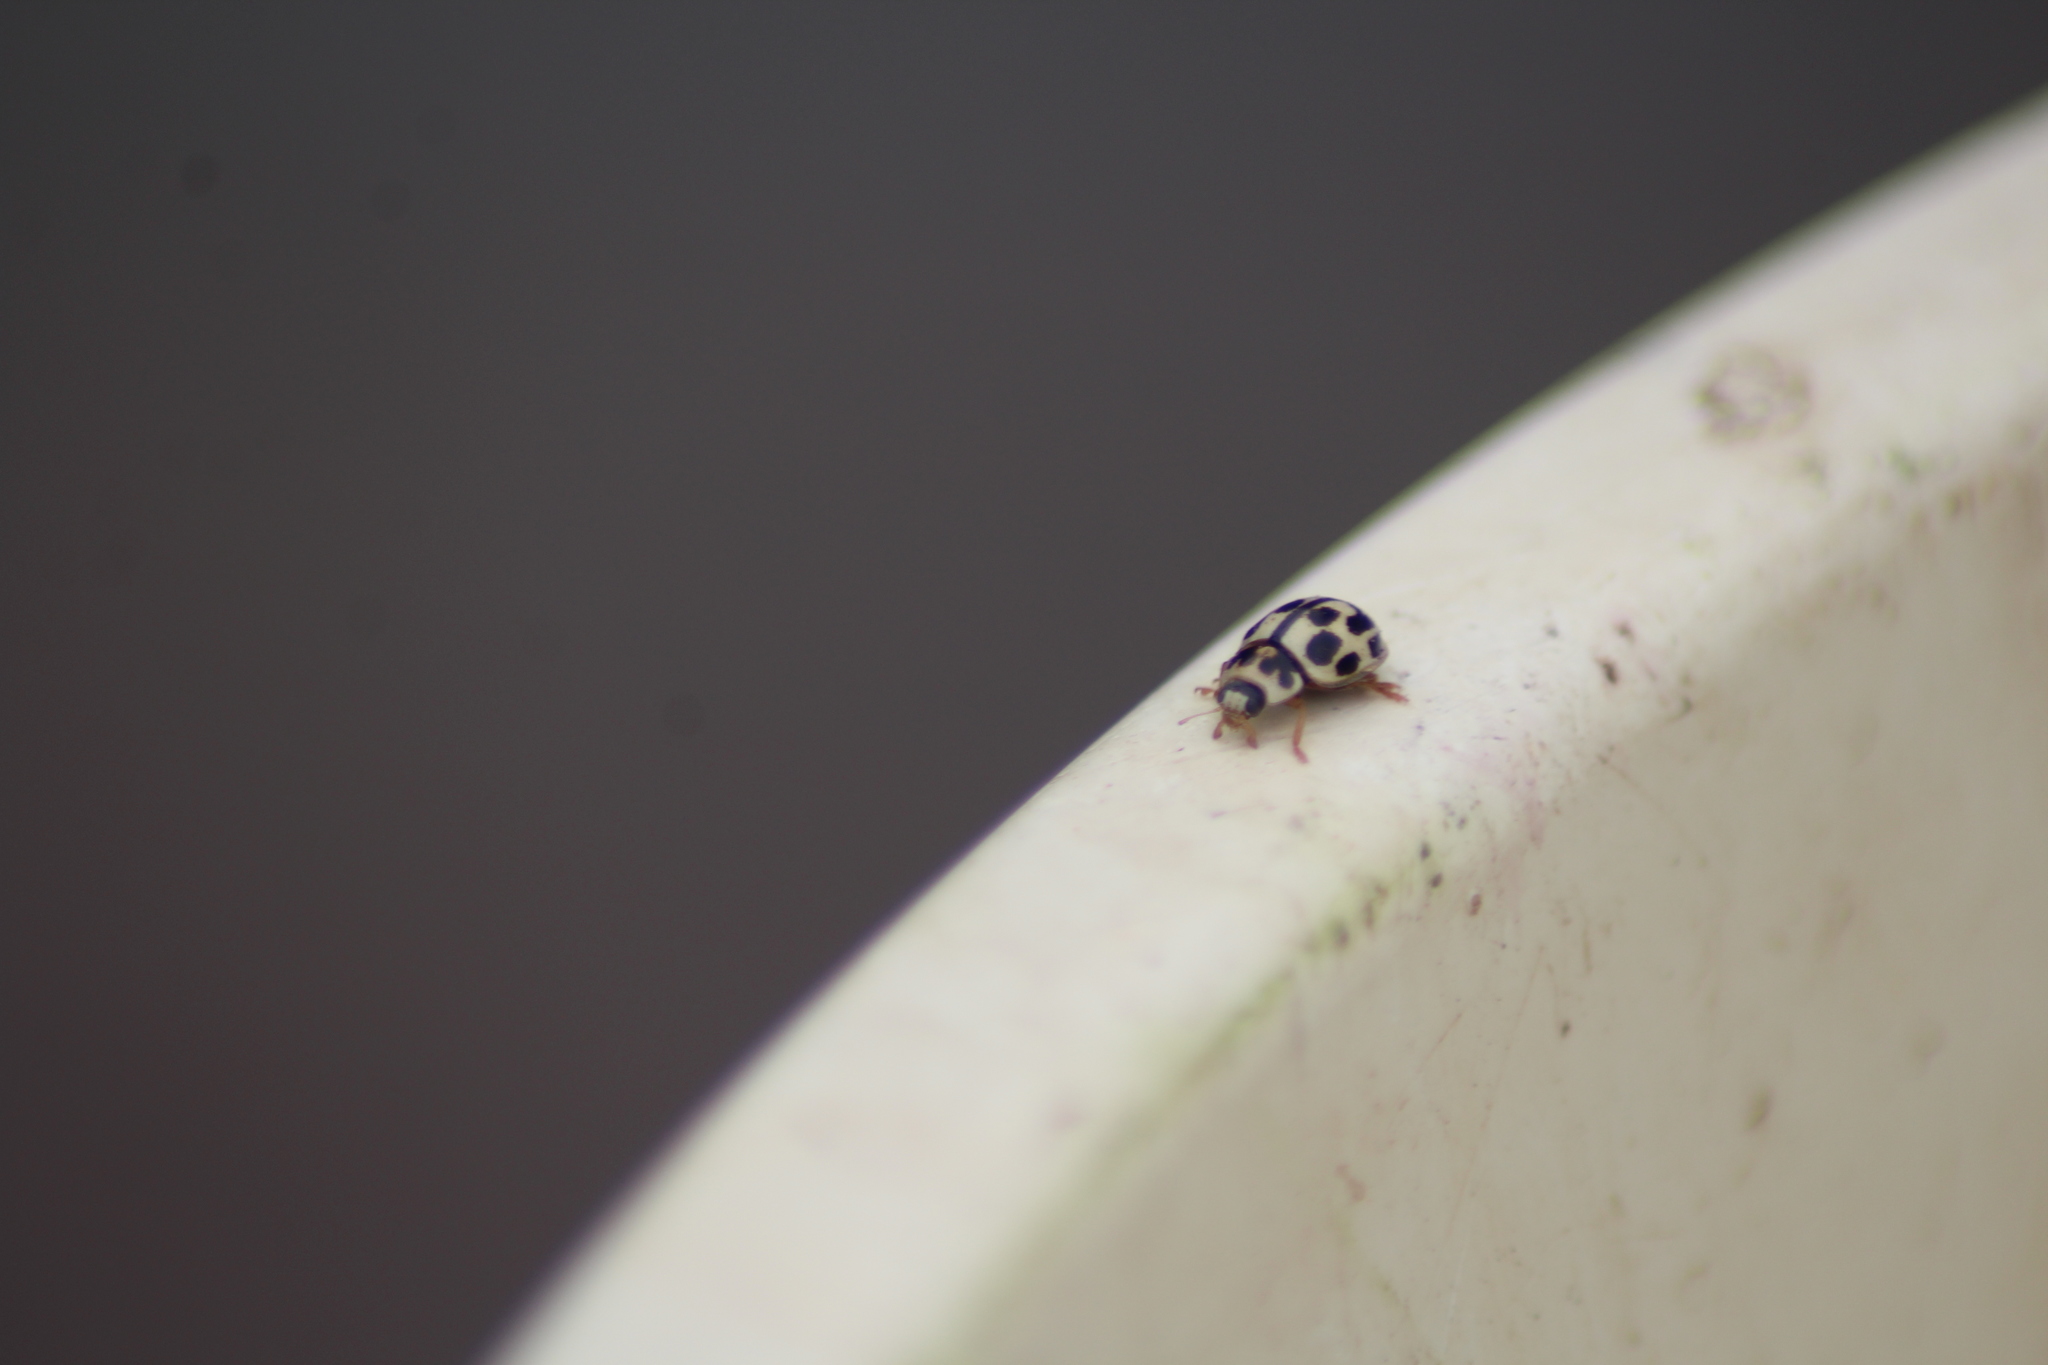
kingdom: Animalia
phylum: Arthropoda
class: Insecta
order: Coleoptera
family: Coccinellidae
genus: Propylaea
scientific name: Propylaea quatuordecimpunctata
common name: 14-spotted ladybird beetle
